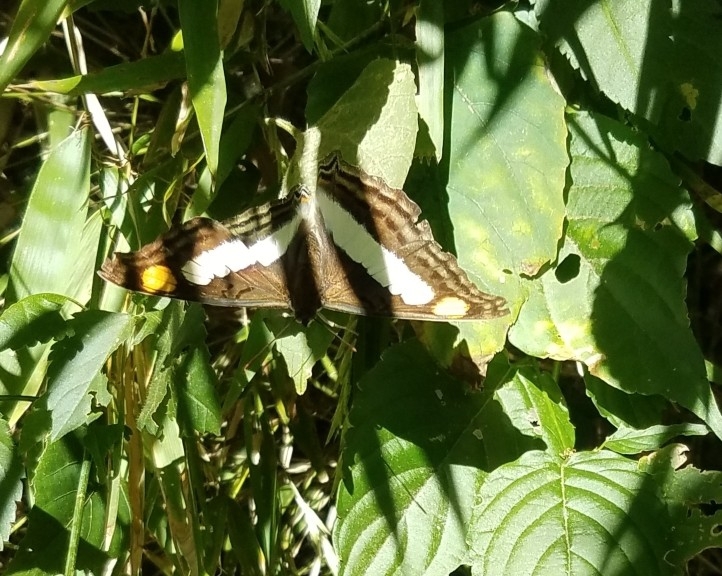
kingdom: Animalia
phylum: Arthropoda
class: Insecta
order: Lepidoptera
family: Nymphalidae
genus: Doxocopa
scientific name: Doxocopa laure
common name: Silver emperor
